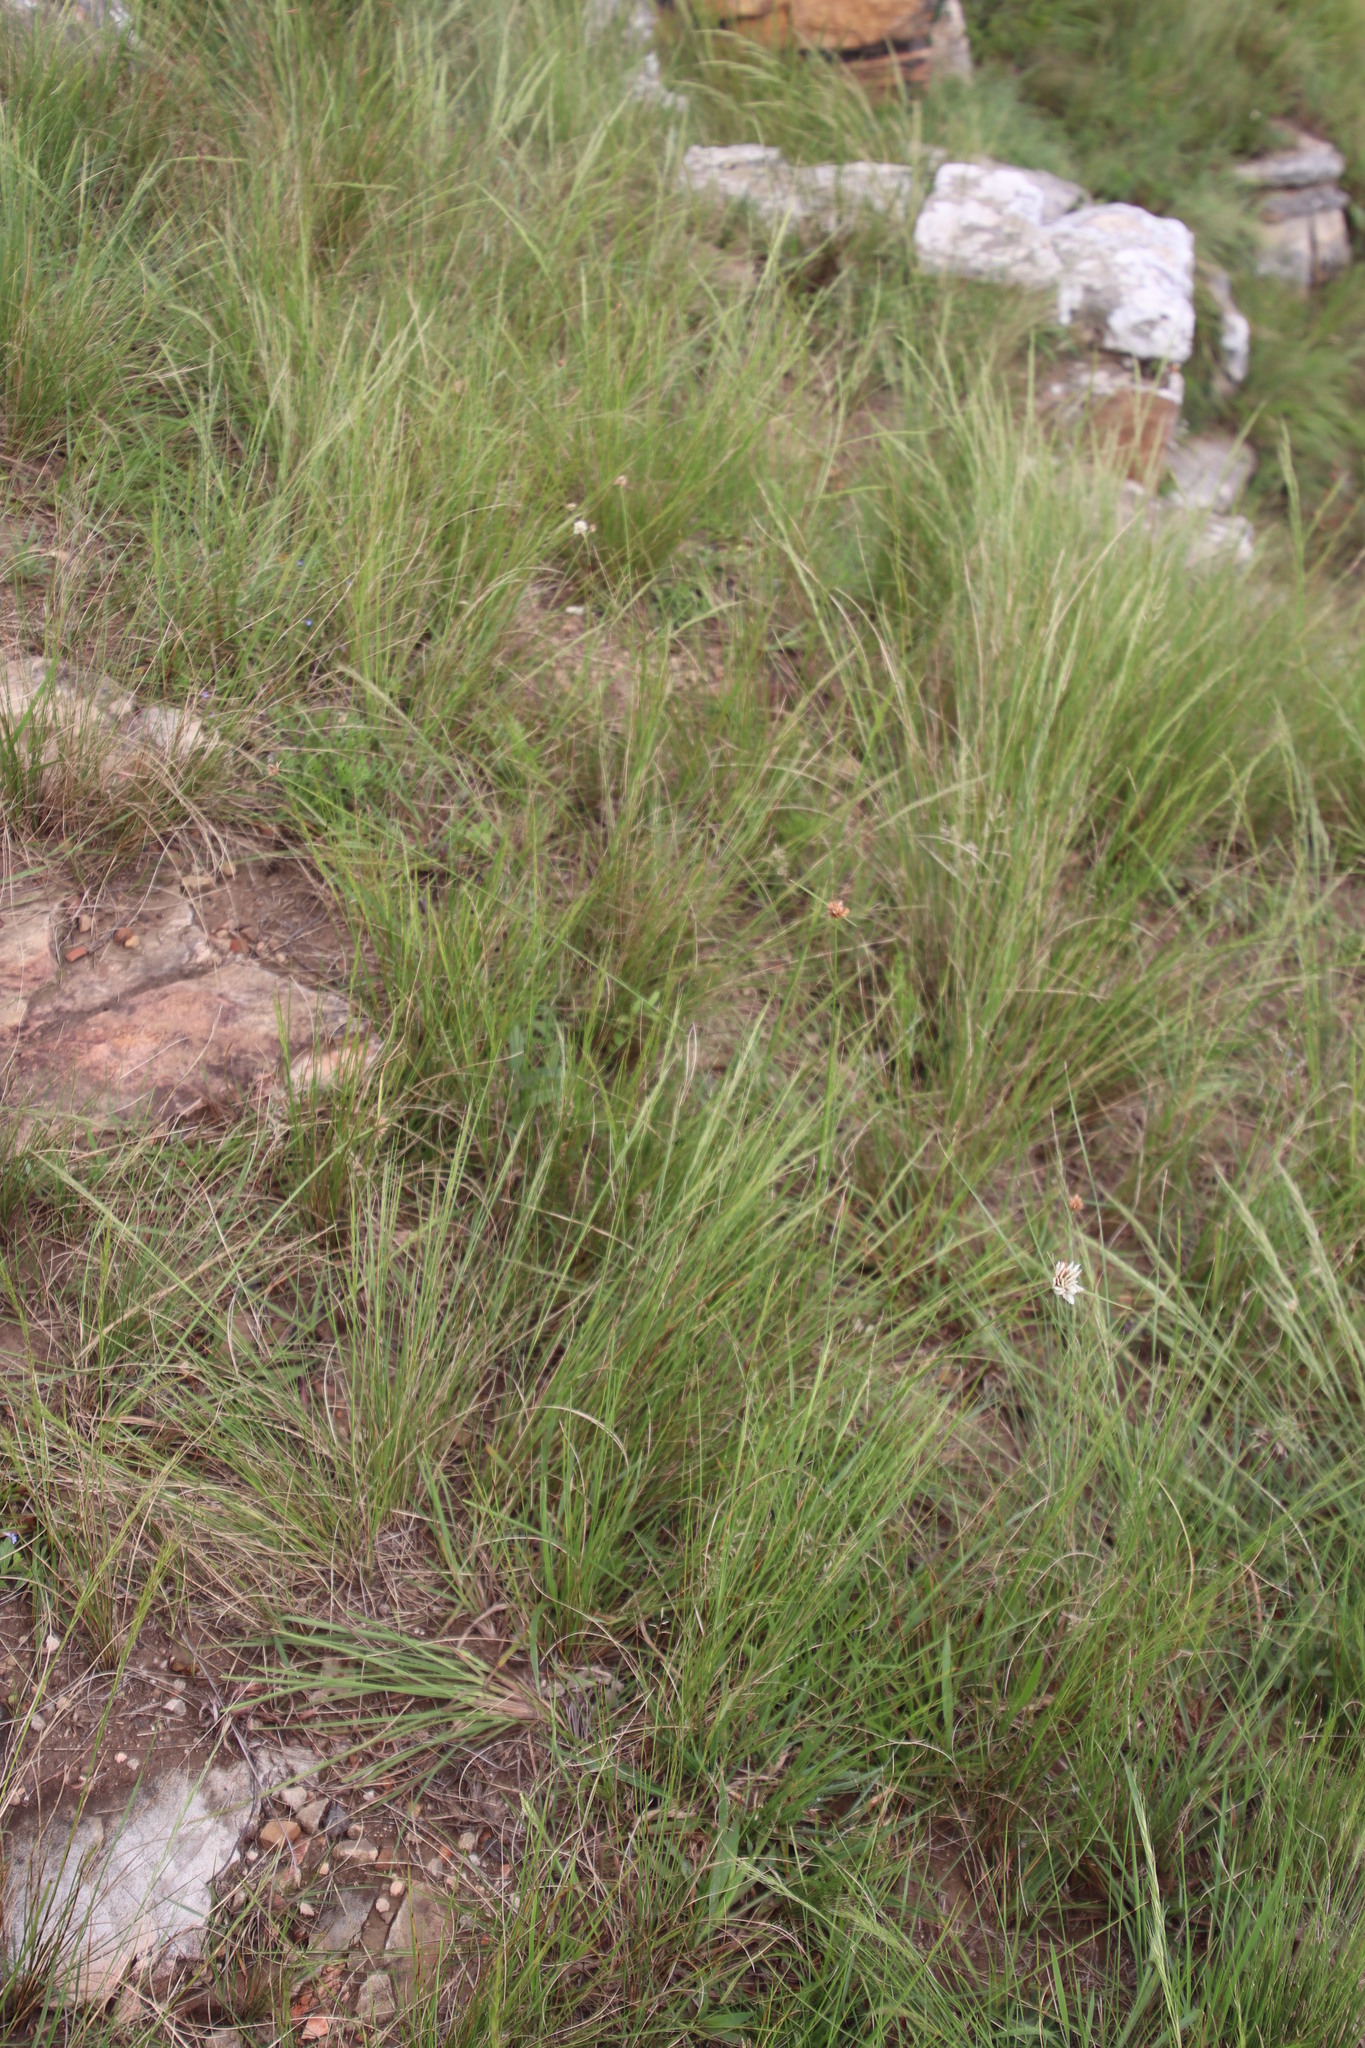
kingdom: Plantae
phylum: Tracheophyta
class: Liliopsida
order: Poales
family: Cyperaceae
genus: Cyperus
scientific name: Cyperus niveus
